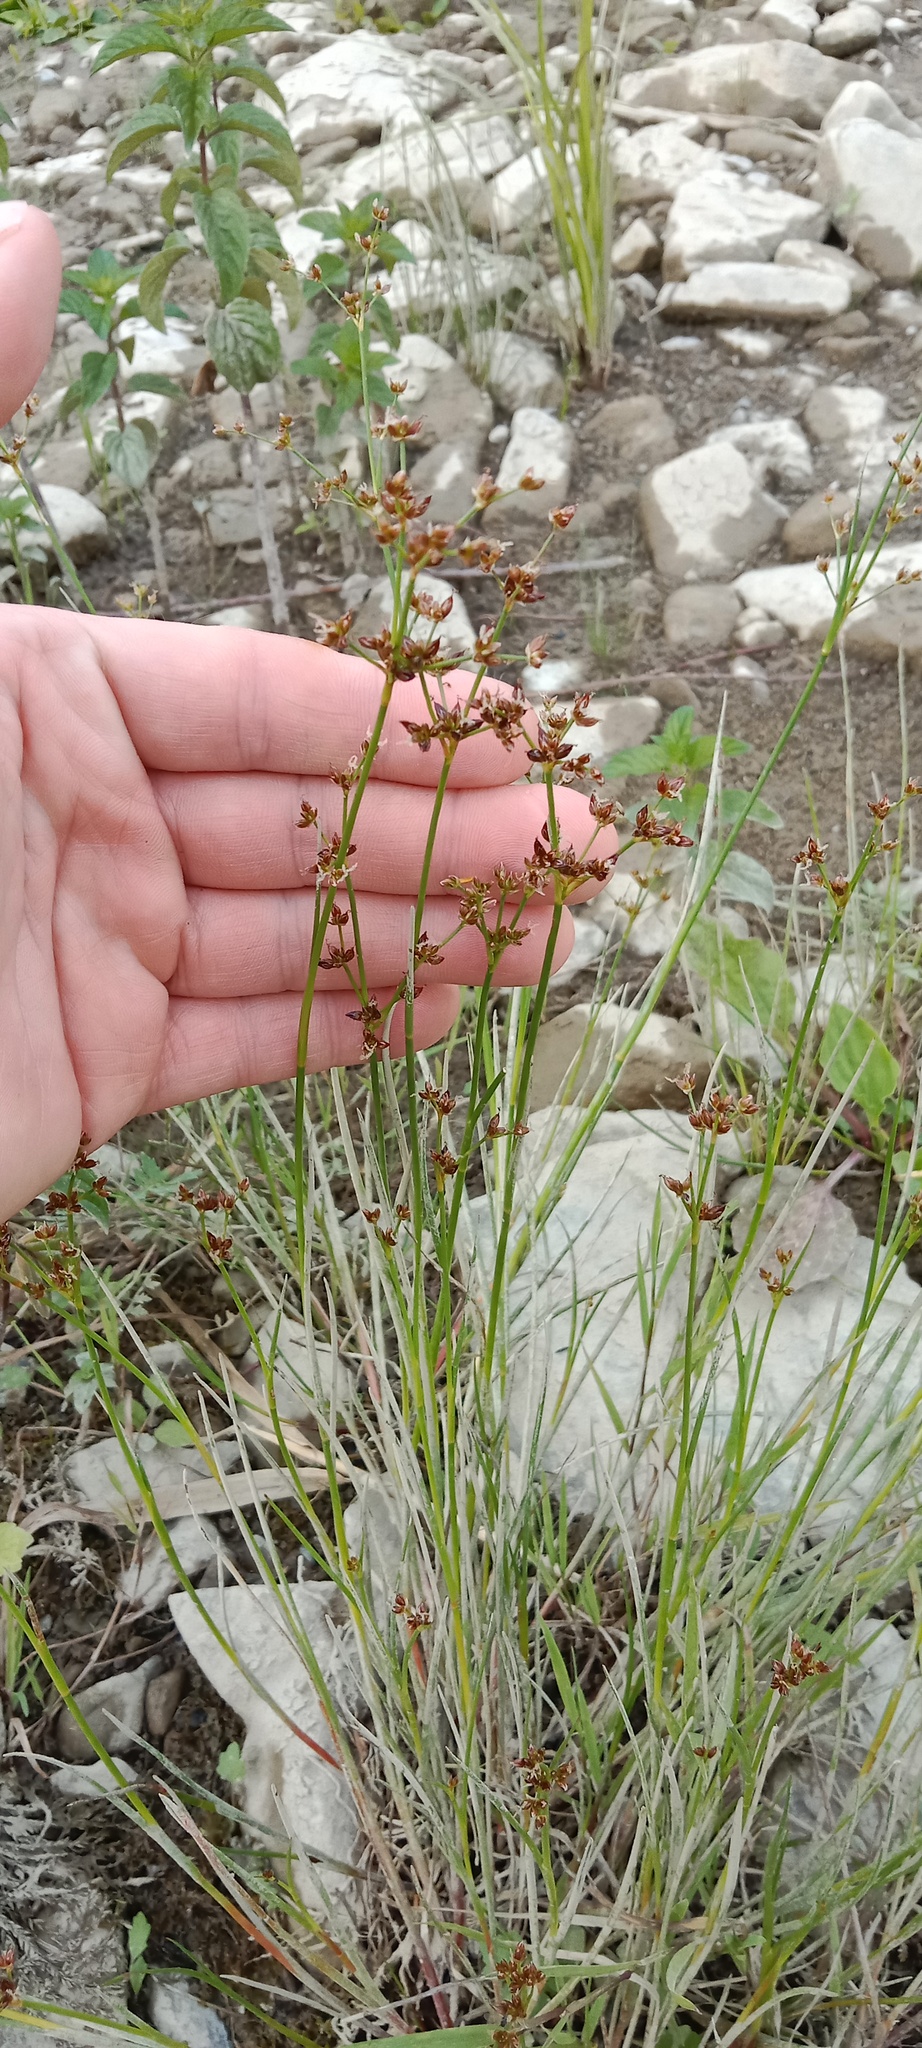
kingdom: Plantae
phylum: Tracheophyta
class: Liliopsida
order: Poales
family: Juncaceae
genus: Juncus
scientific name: Juncus articulatus
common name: Jointed rush
